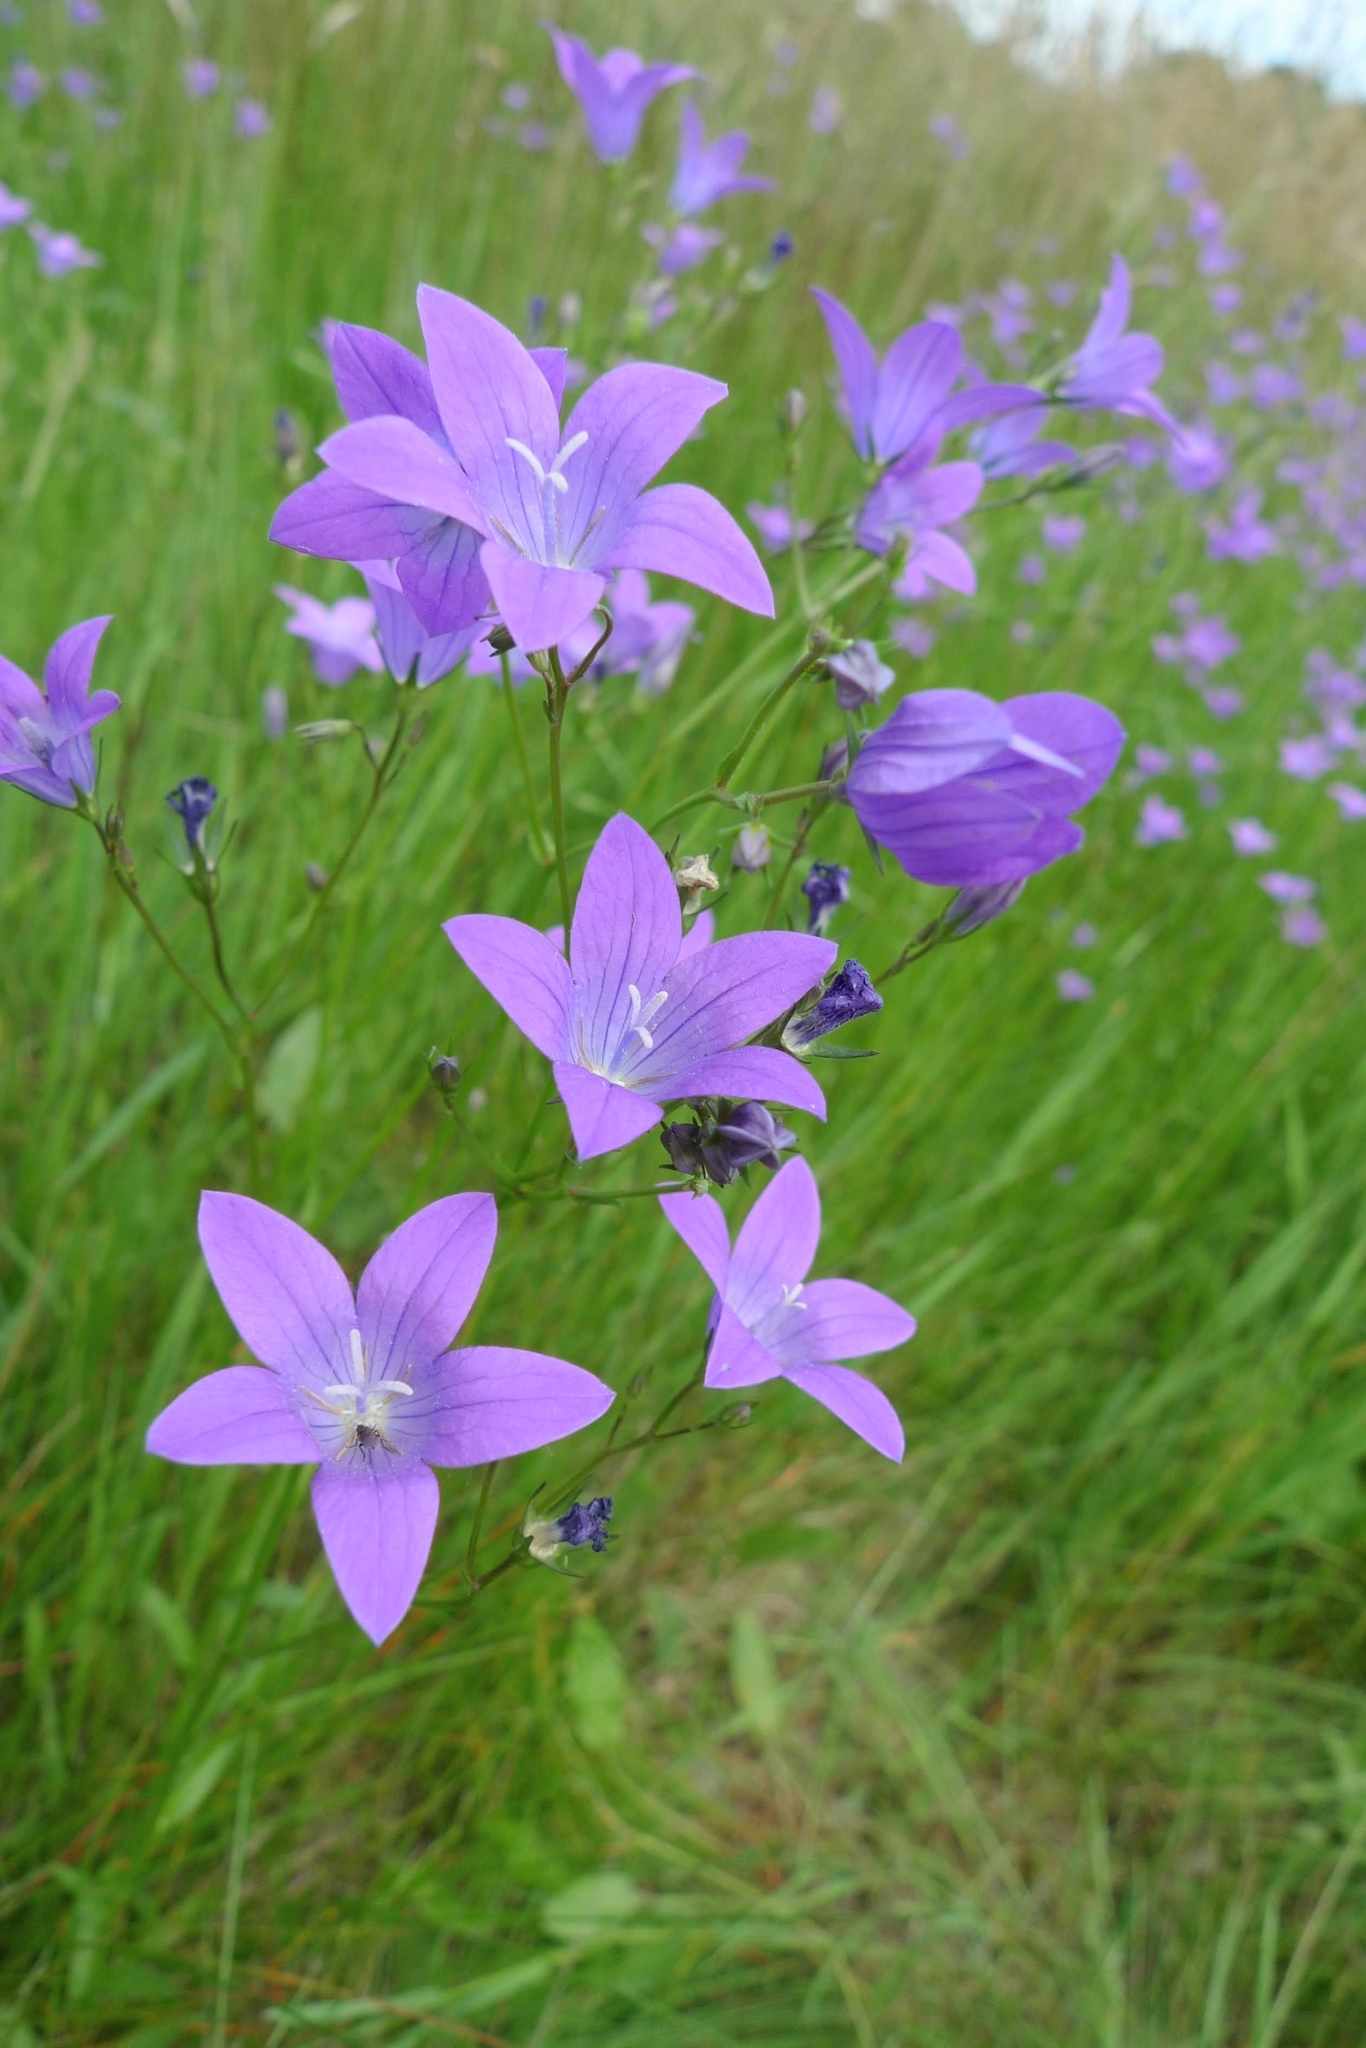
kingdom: Plantae
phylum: Tracheophyta
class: Magnoliopsida
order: Asterales
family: Campanulaceae
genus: Campanula
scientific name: Campanula patula
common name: Spreading bellflower
